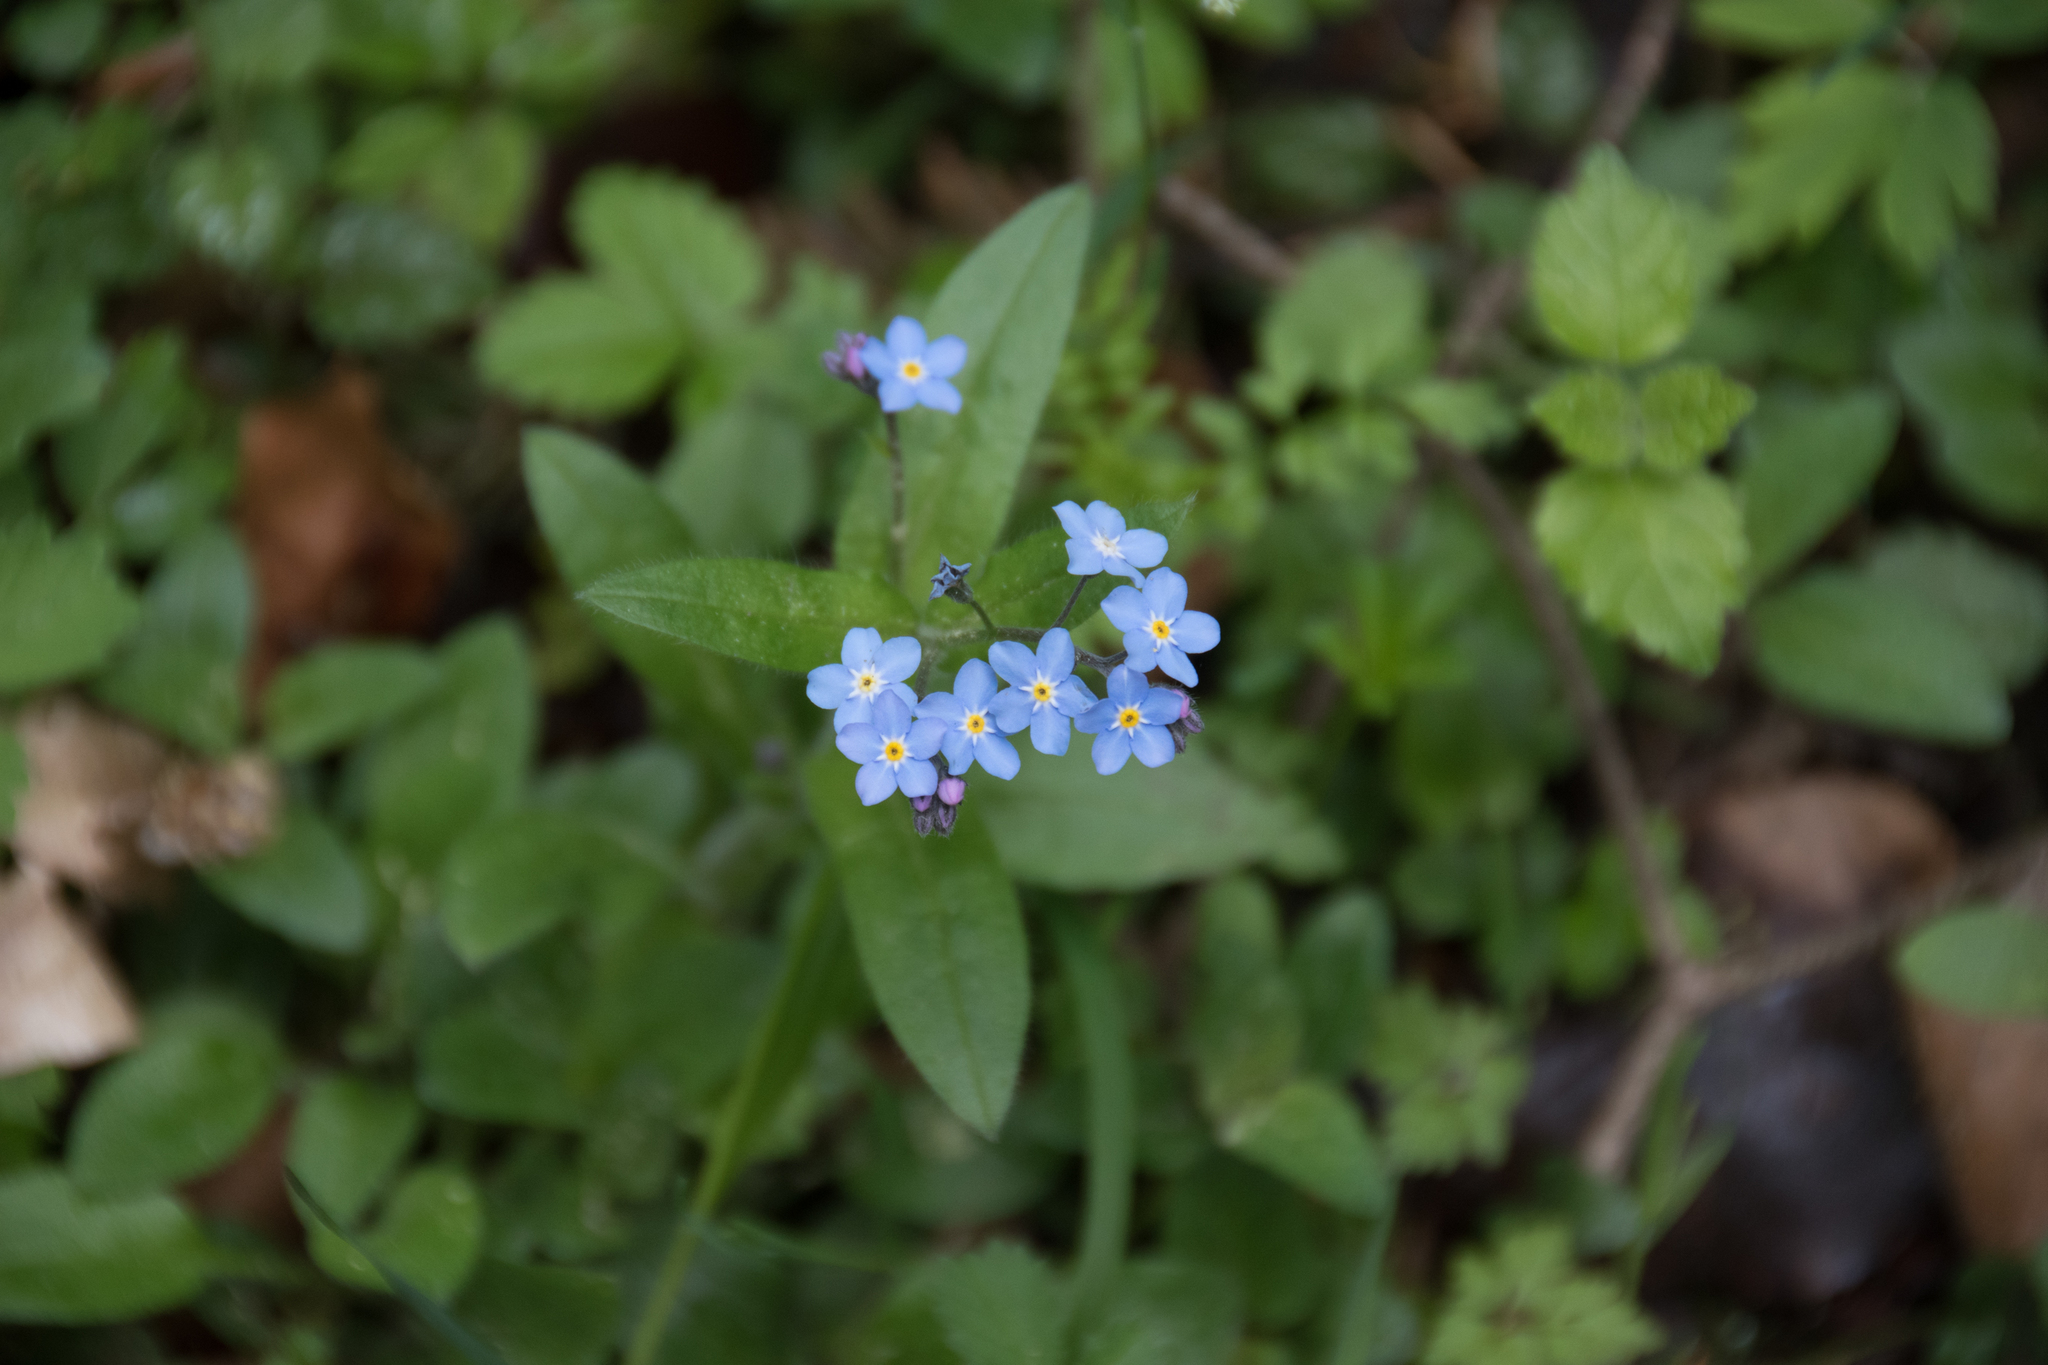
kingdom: Plantae
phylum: Tracheophyta
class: Magnoliopsida
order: Boraginales
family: Boraginaceae
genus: Myosotis
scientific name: Myosotis sylvatica
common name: Wood forget-me-not
